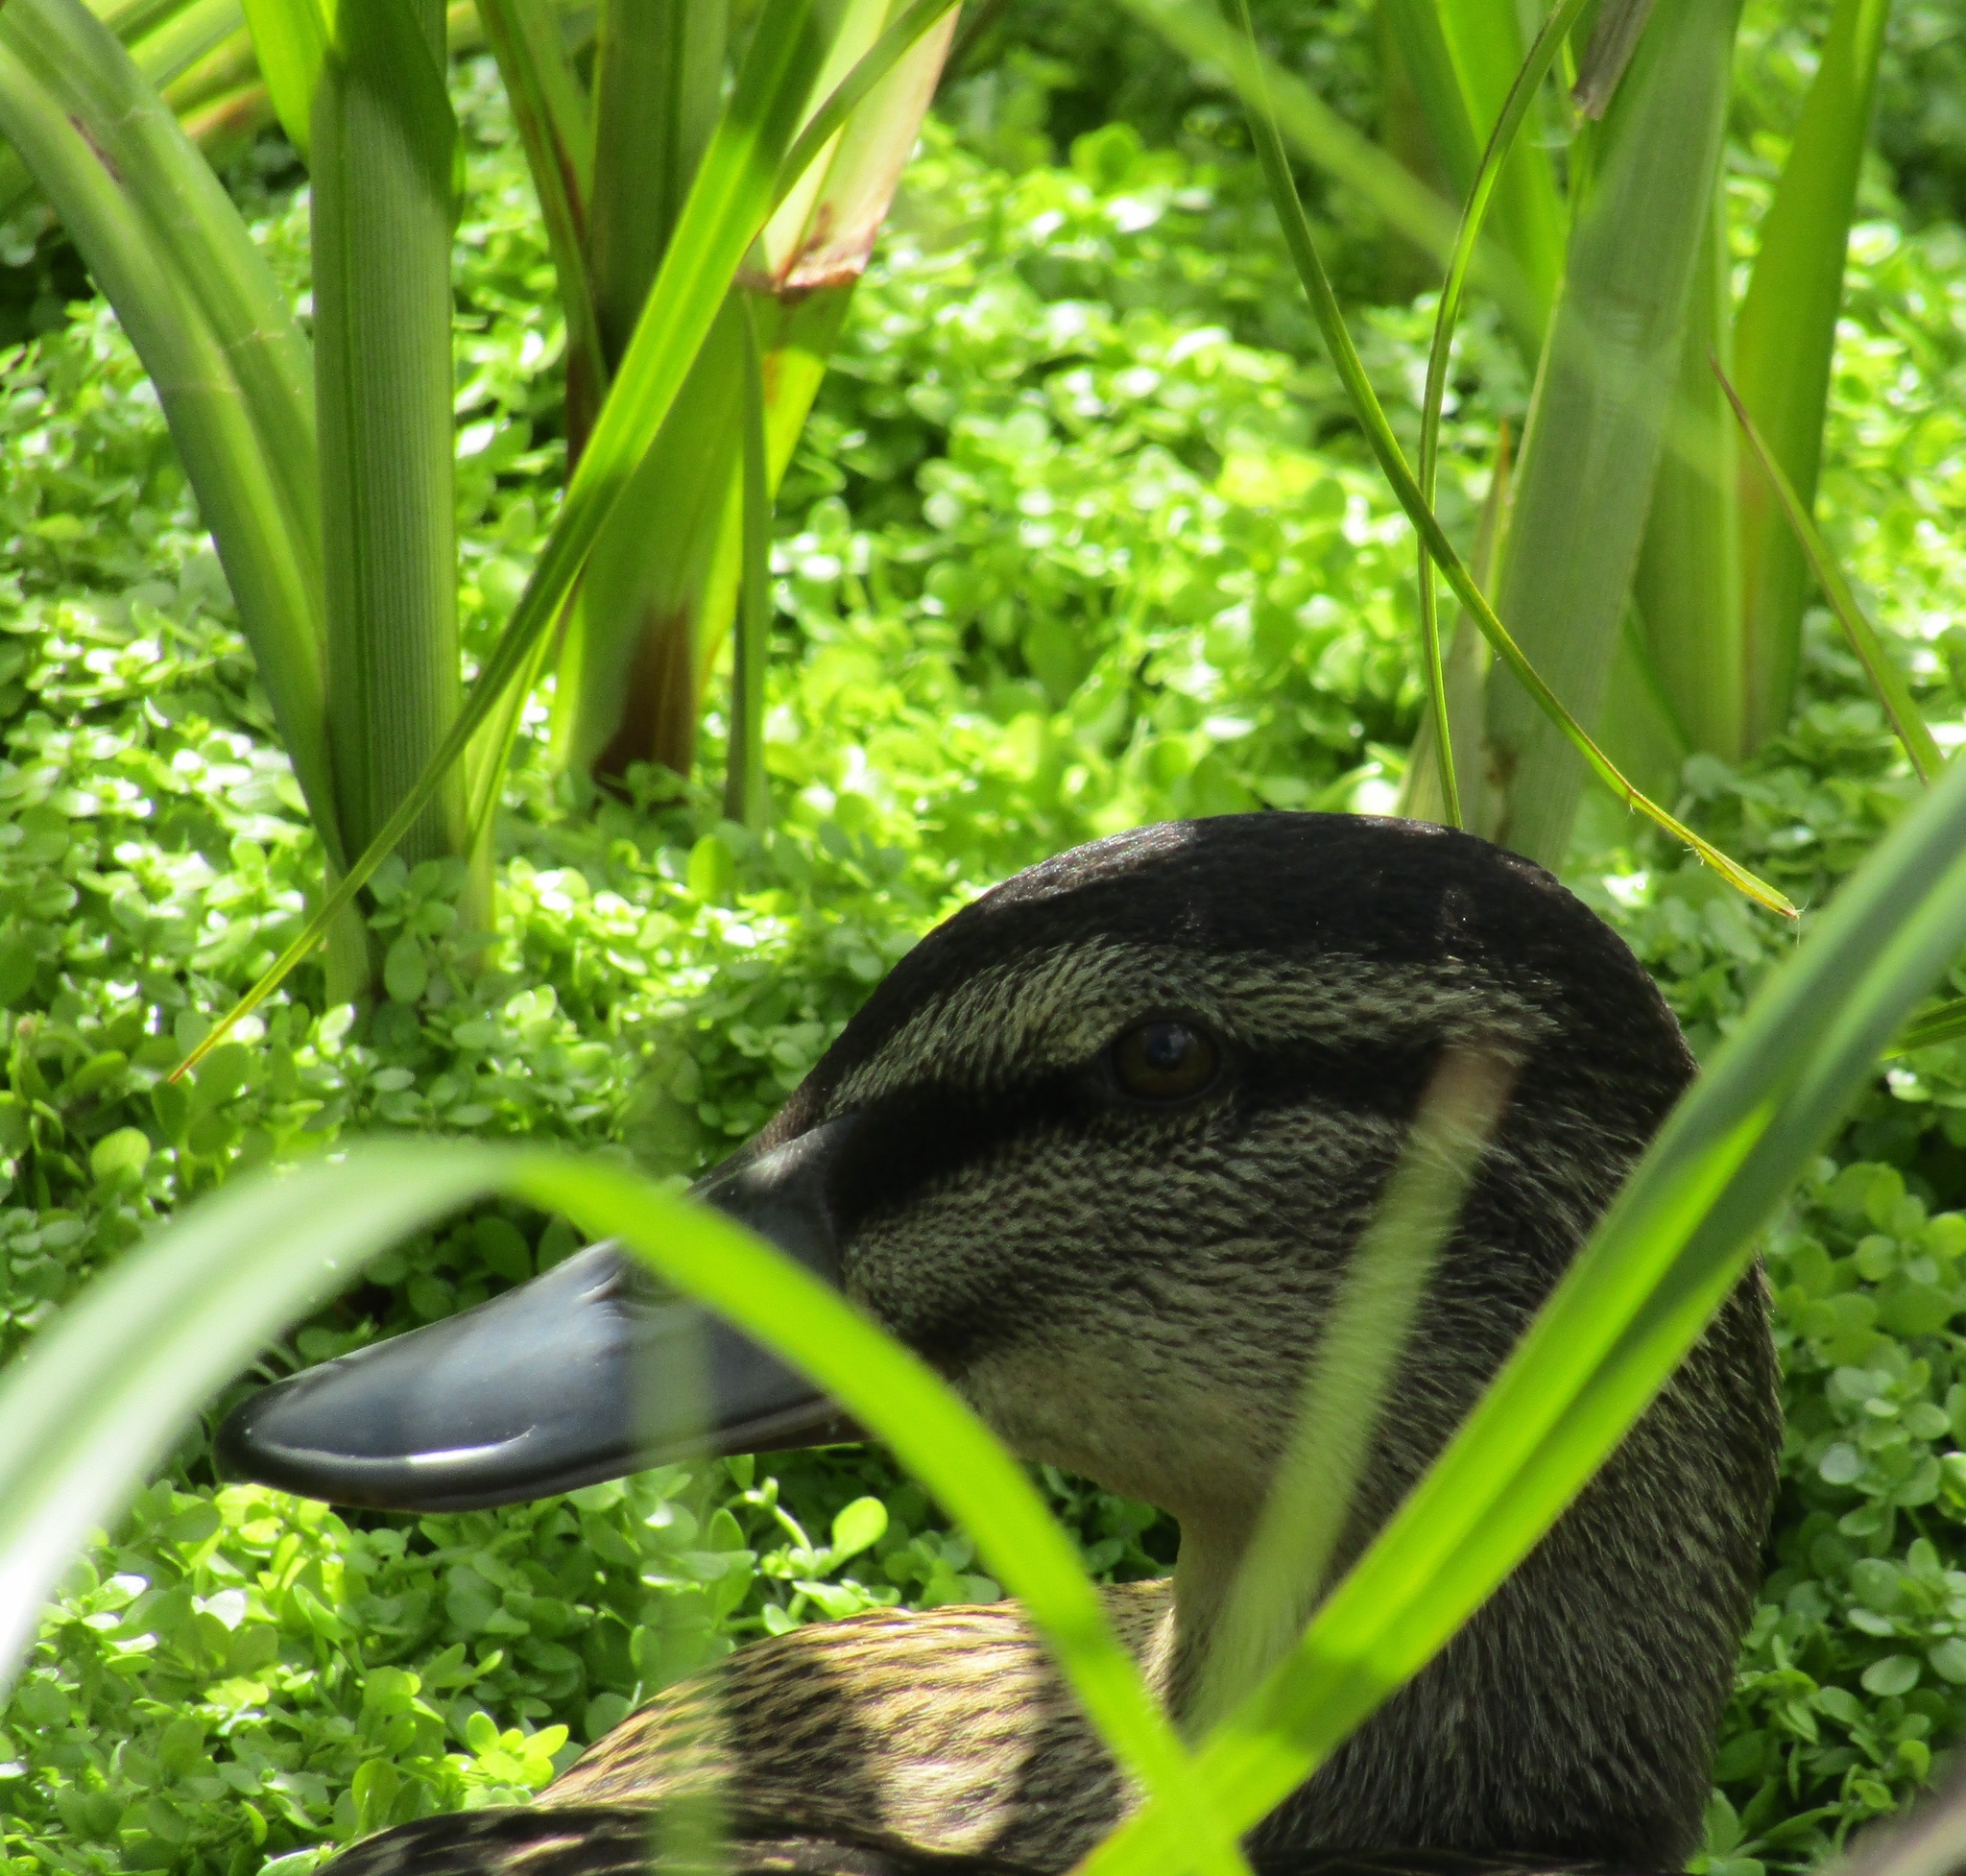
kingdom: Animalia
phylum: Chordata
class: Aves
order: Anseriformes
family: Anatidae
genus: Anas
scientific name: Anas
